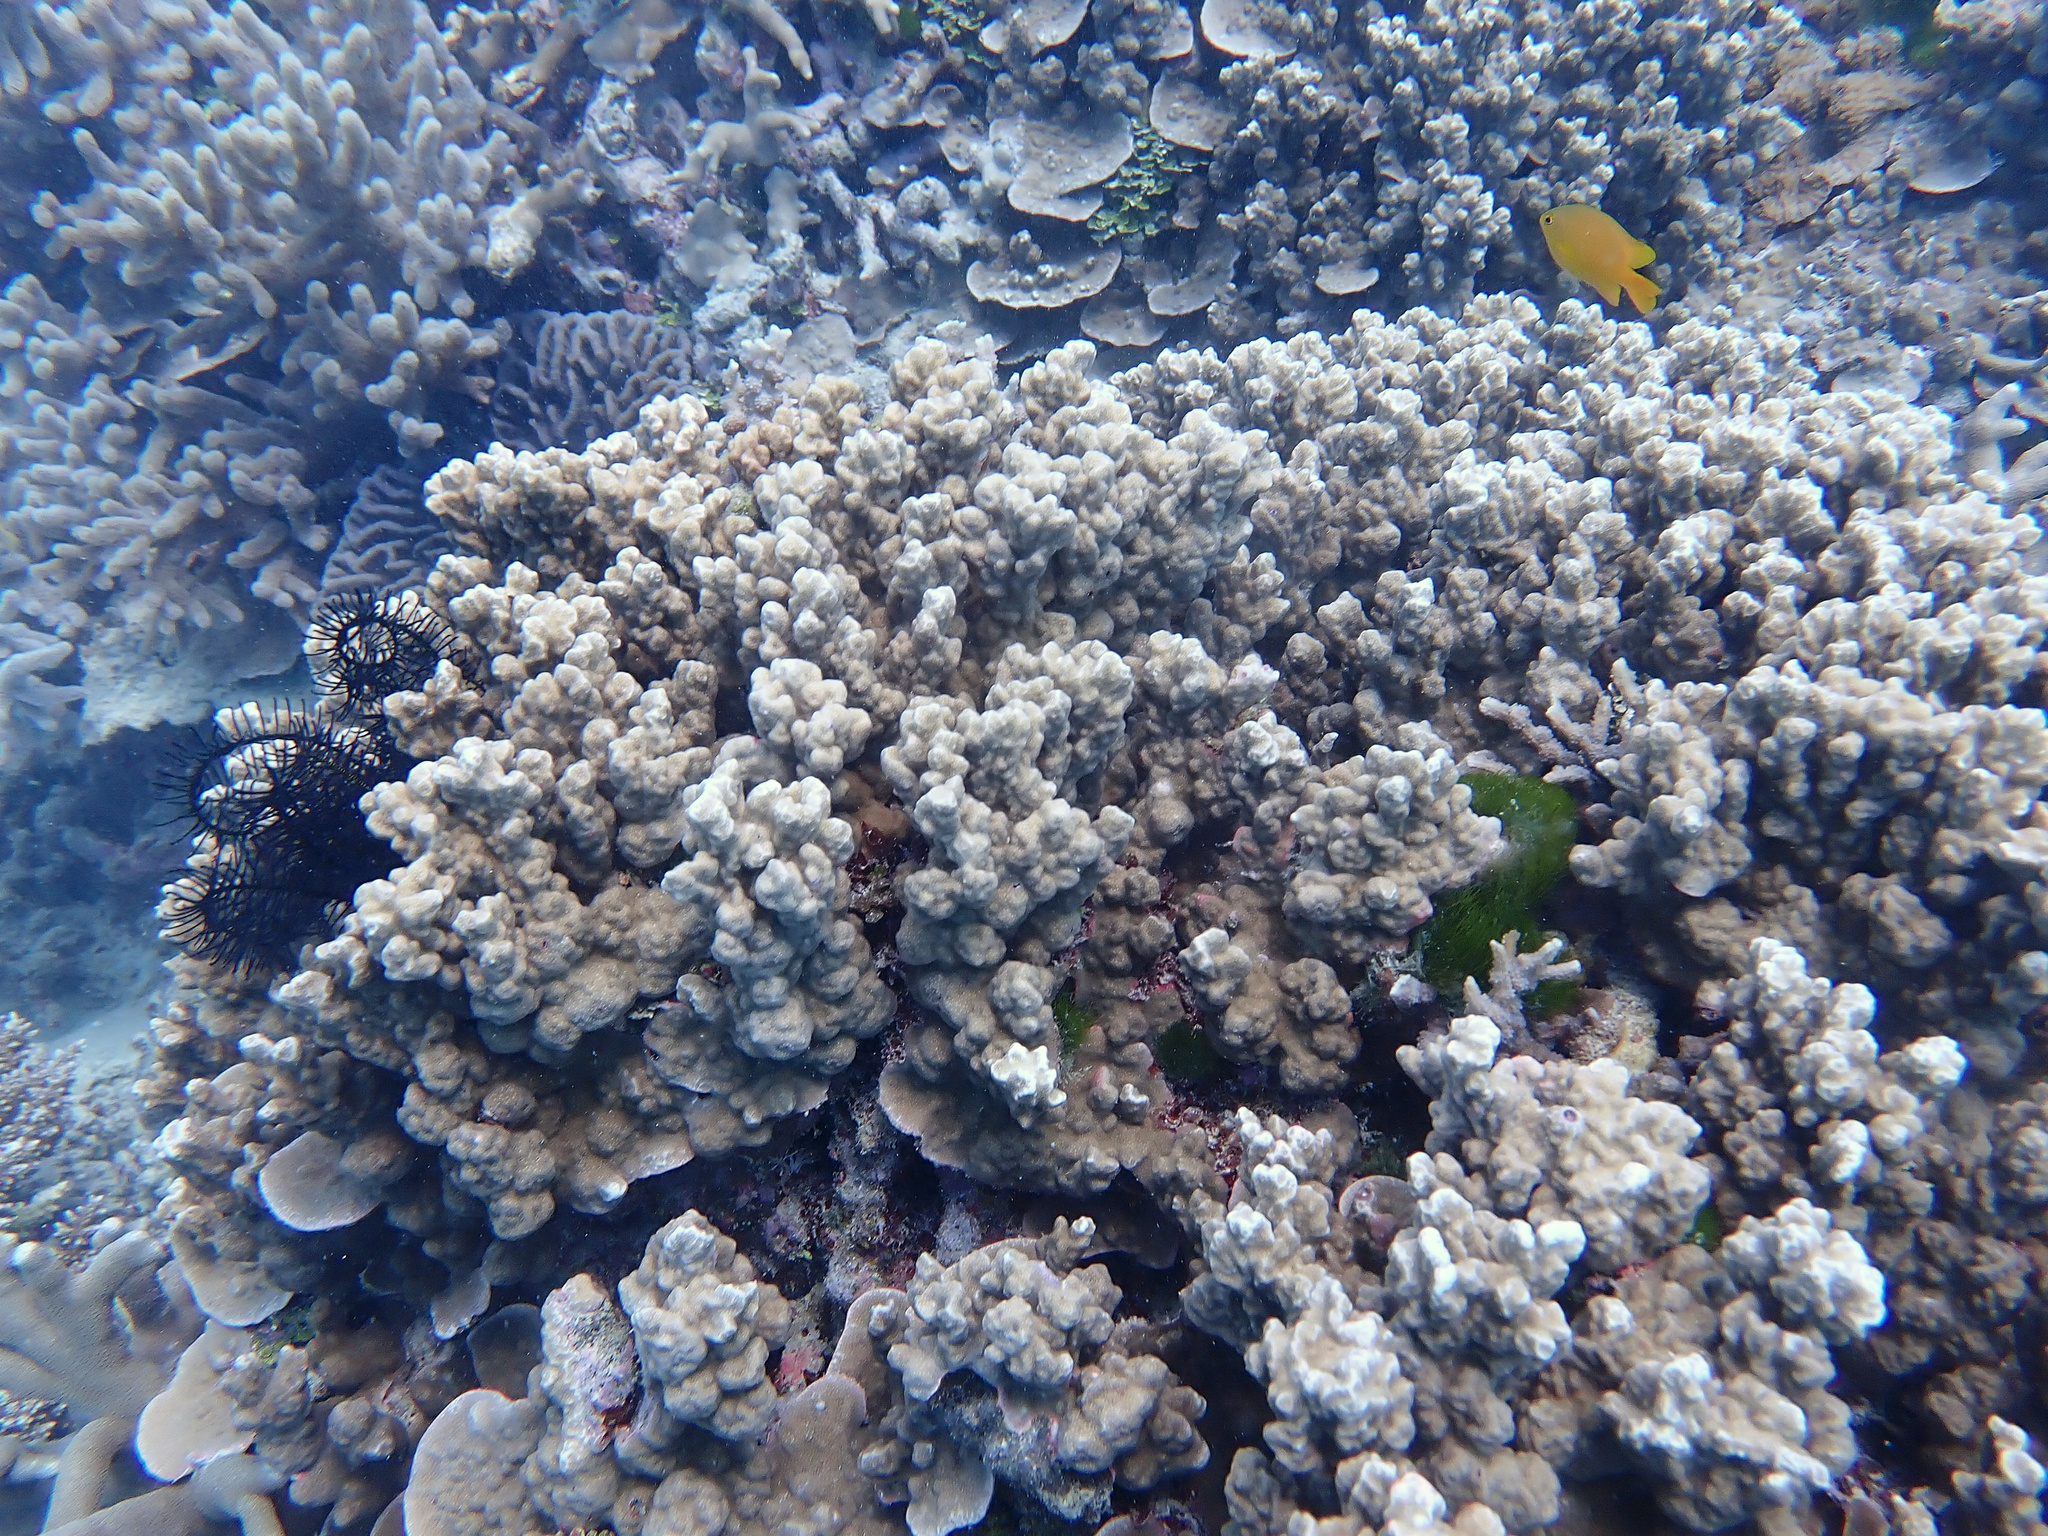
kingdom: Animalia
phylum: Cnidaria
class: Anthozoa
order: Scleractinia
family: Poritidae
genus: Porites
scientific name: Porites rus
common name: Hump coral
